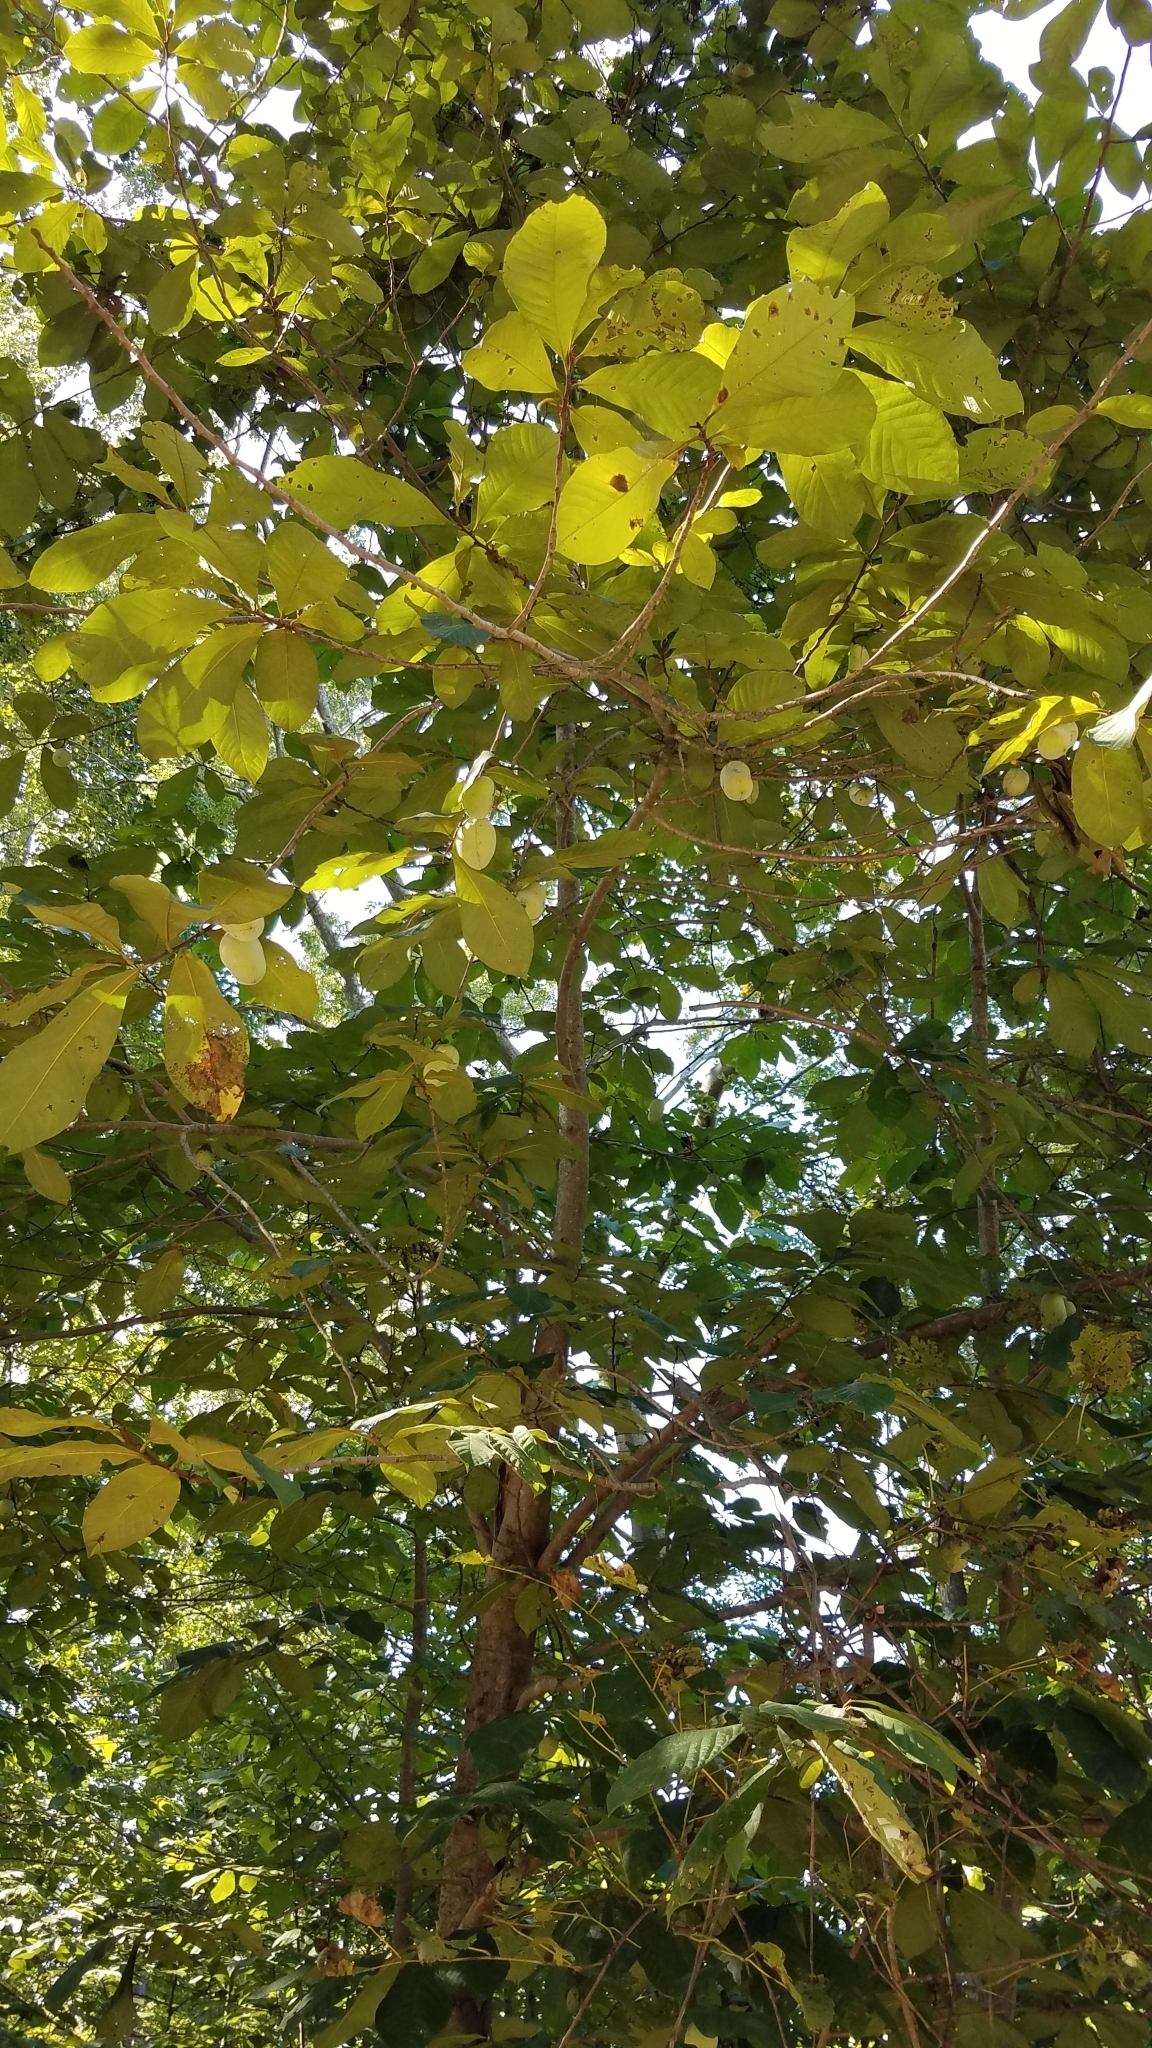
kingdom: Plantae
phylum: Tracheophyta
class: Magnoliopsida
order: Magnoliales
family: Annonaceae
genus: Asimina
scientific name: Asimina triloba
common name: Dog-banana
